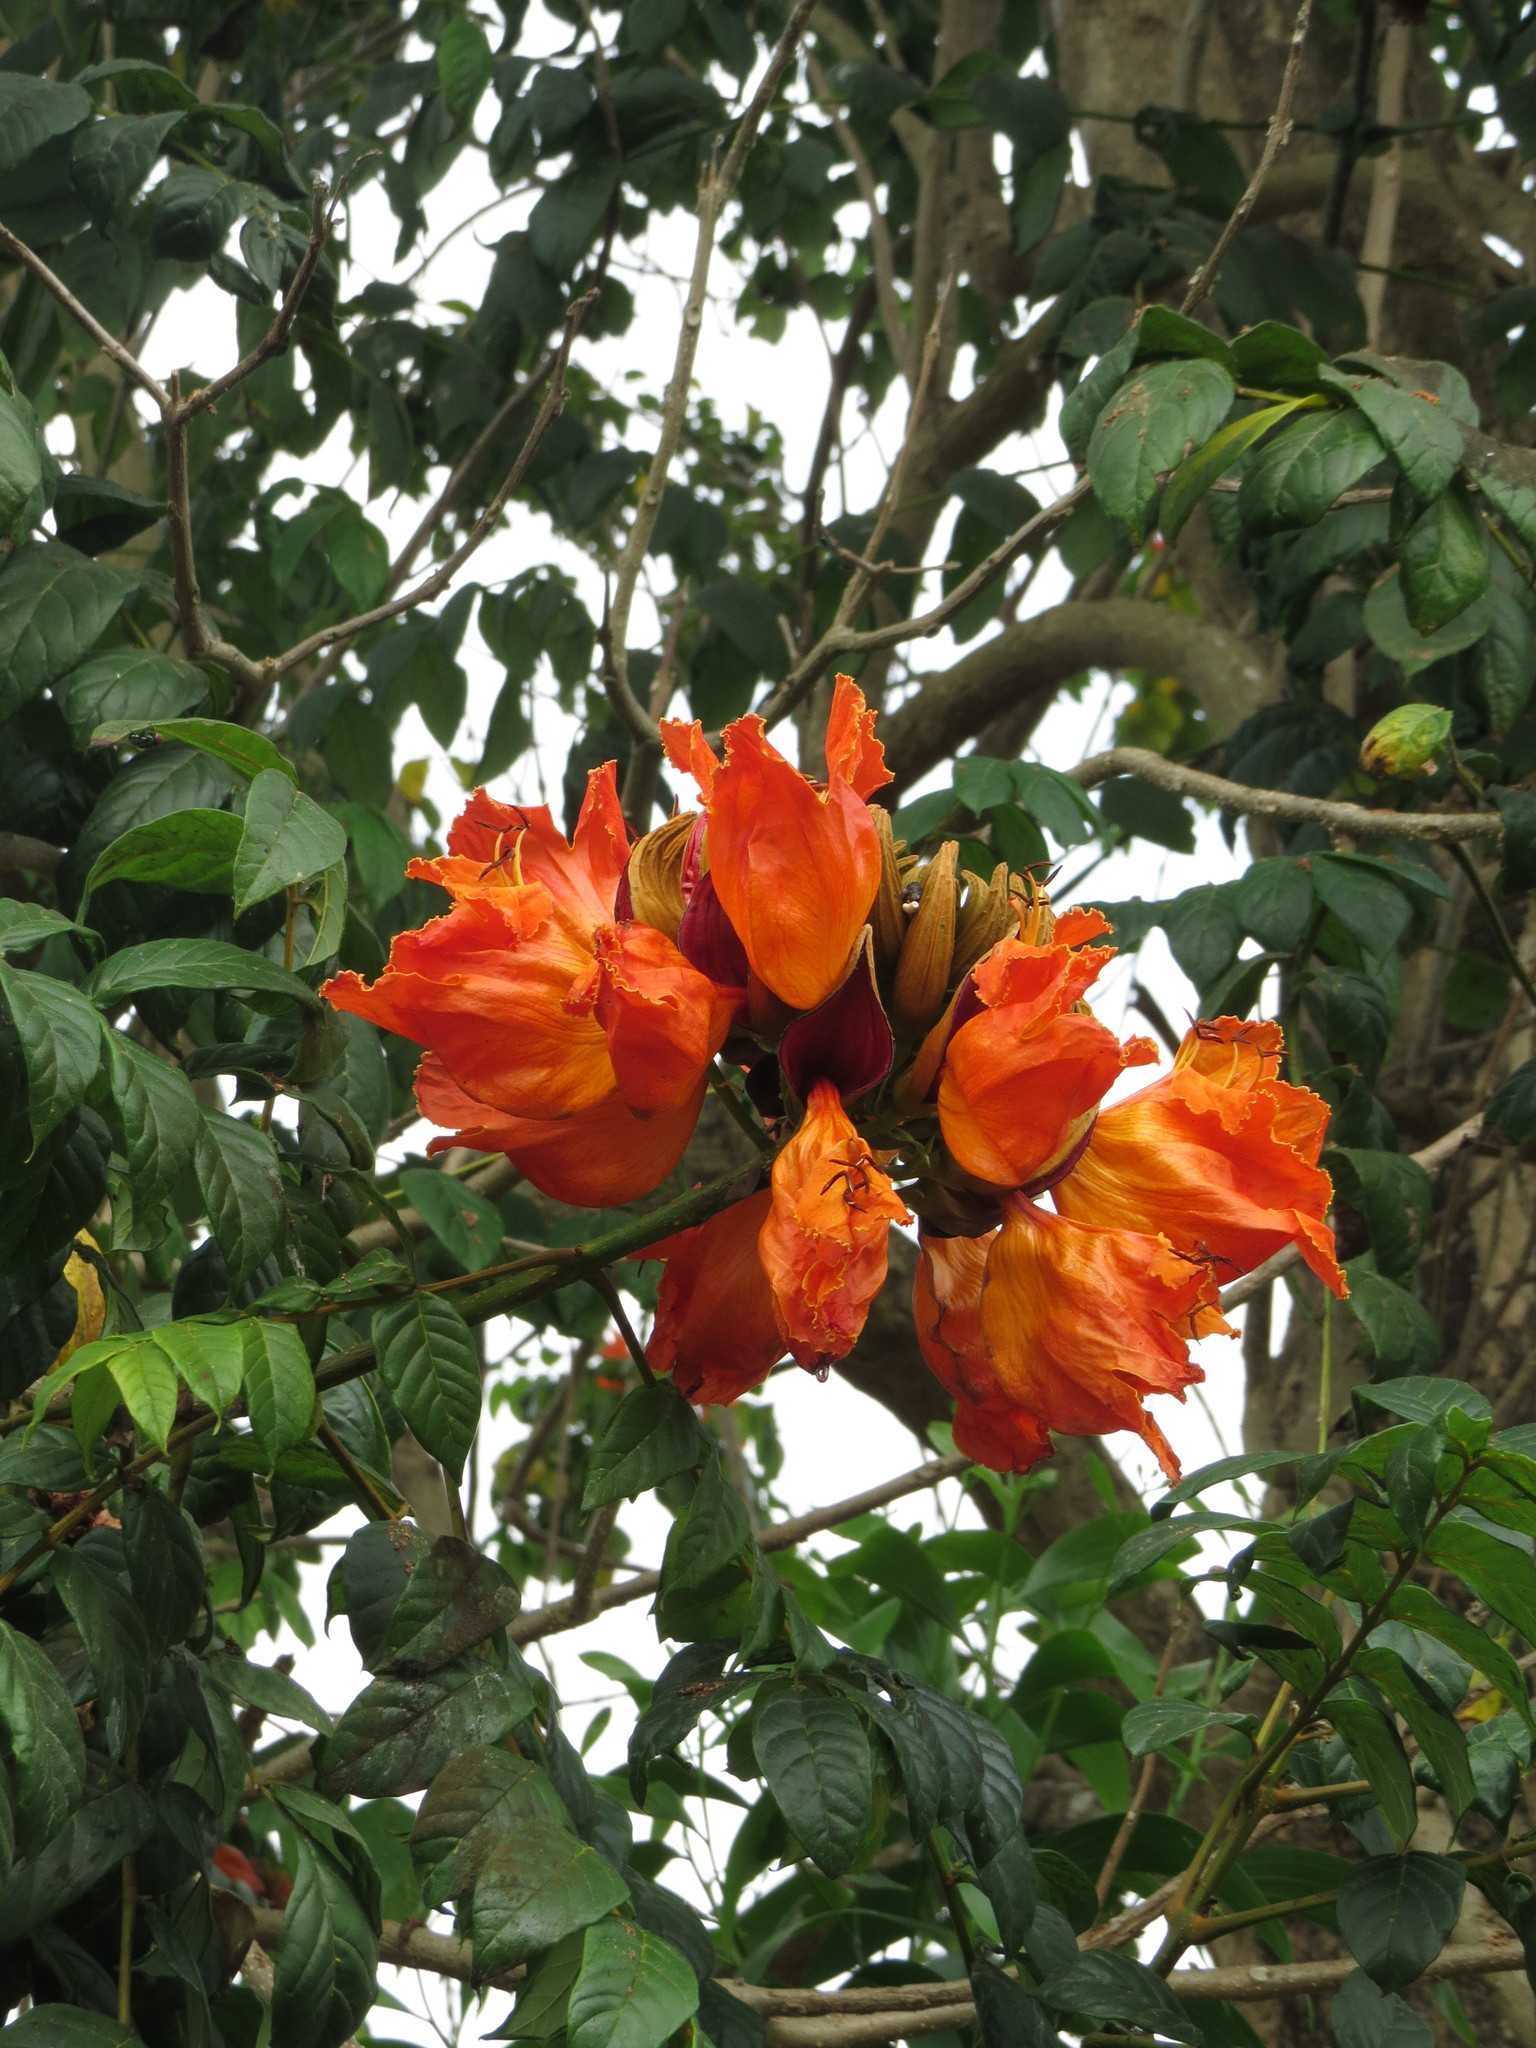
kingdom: Plantae
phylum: Tracheophyta
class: Magnoliopsida
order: Lamiales
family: Bignoniaceae
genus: Spathodea
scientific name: Spathodea campanulata
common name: African tuliptree
